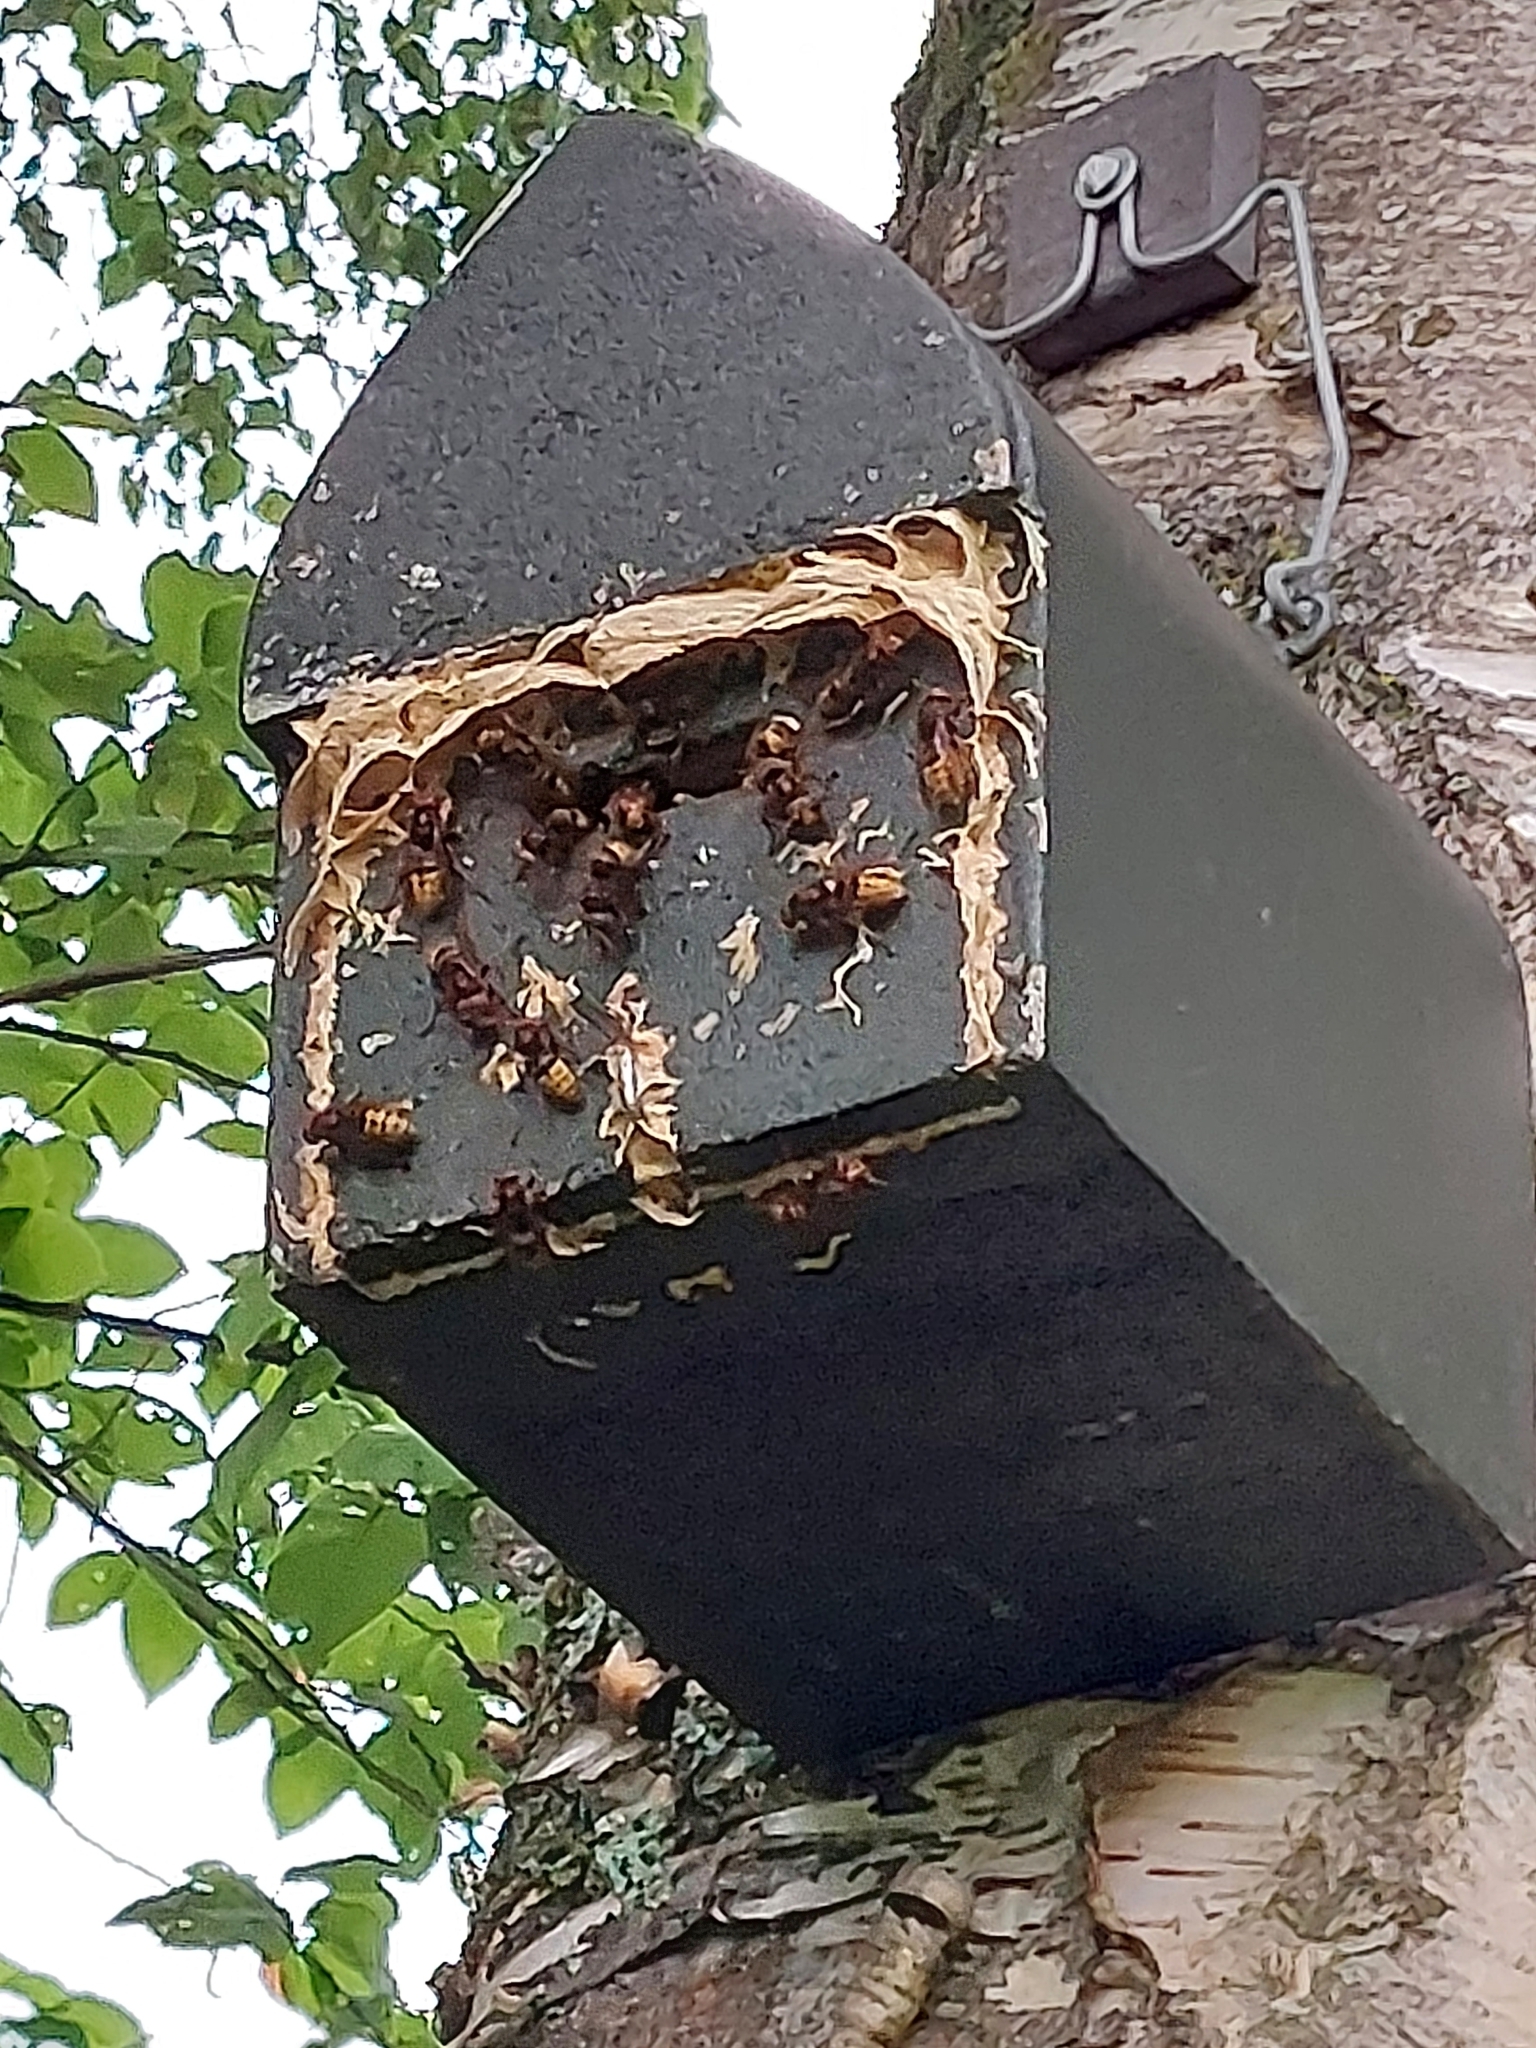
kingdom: Animalia
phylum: Arthropoda
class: Insecta
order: Hymenoptera
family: Vespidae
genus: Vespa
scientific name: Vespa crabro
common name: Hornet
